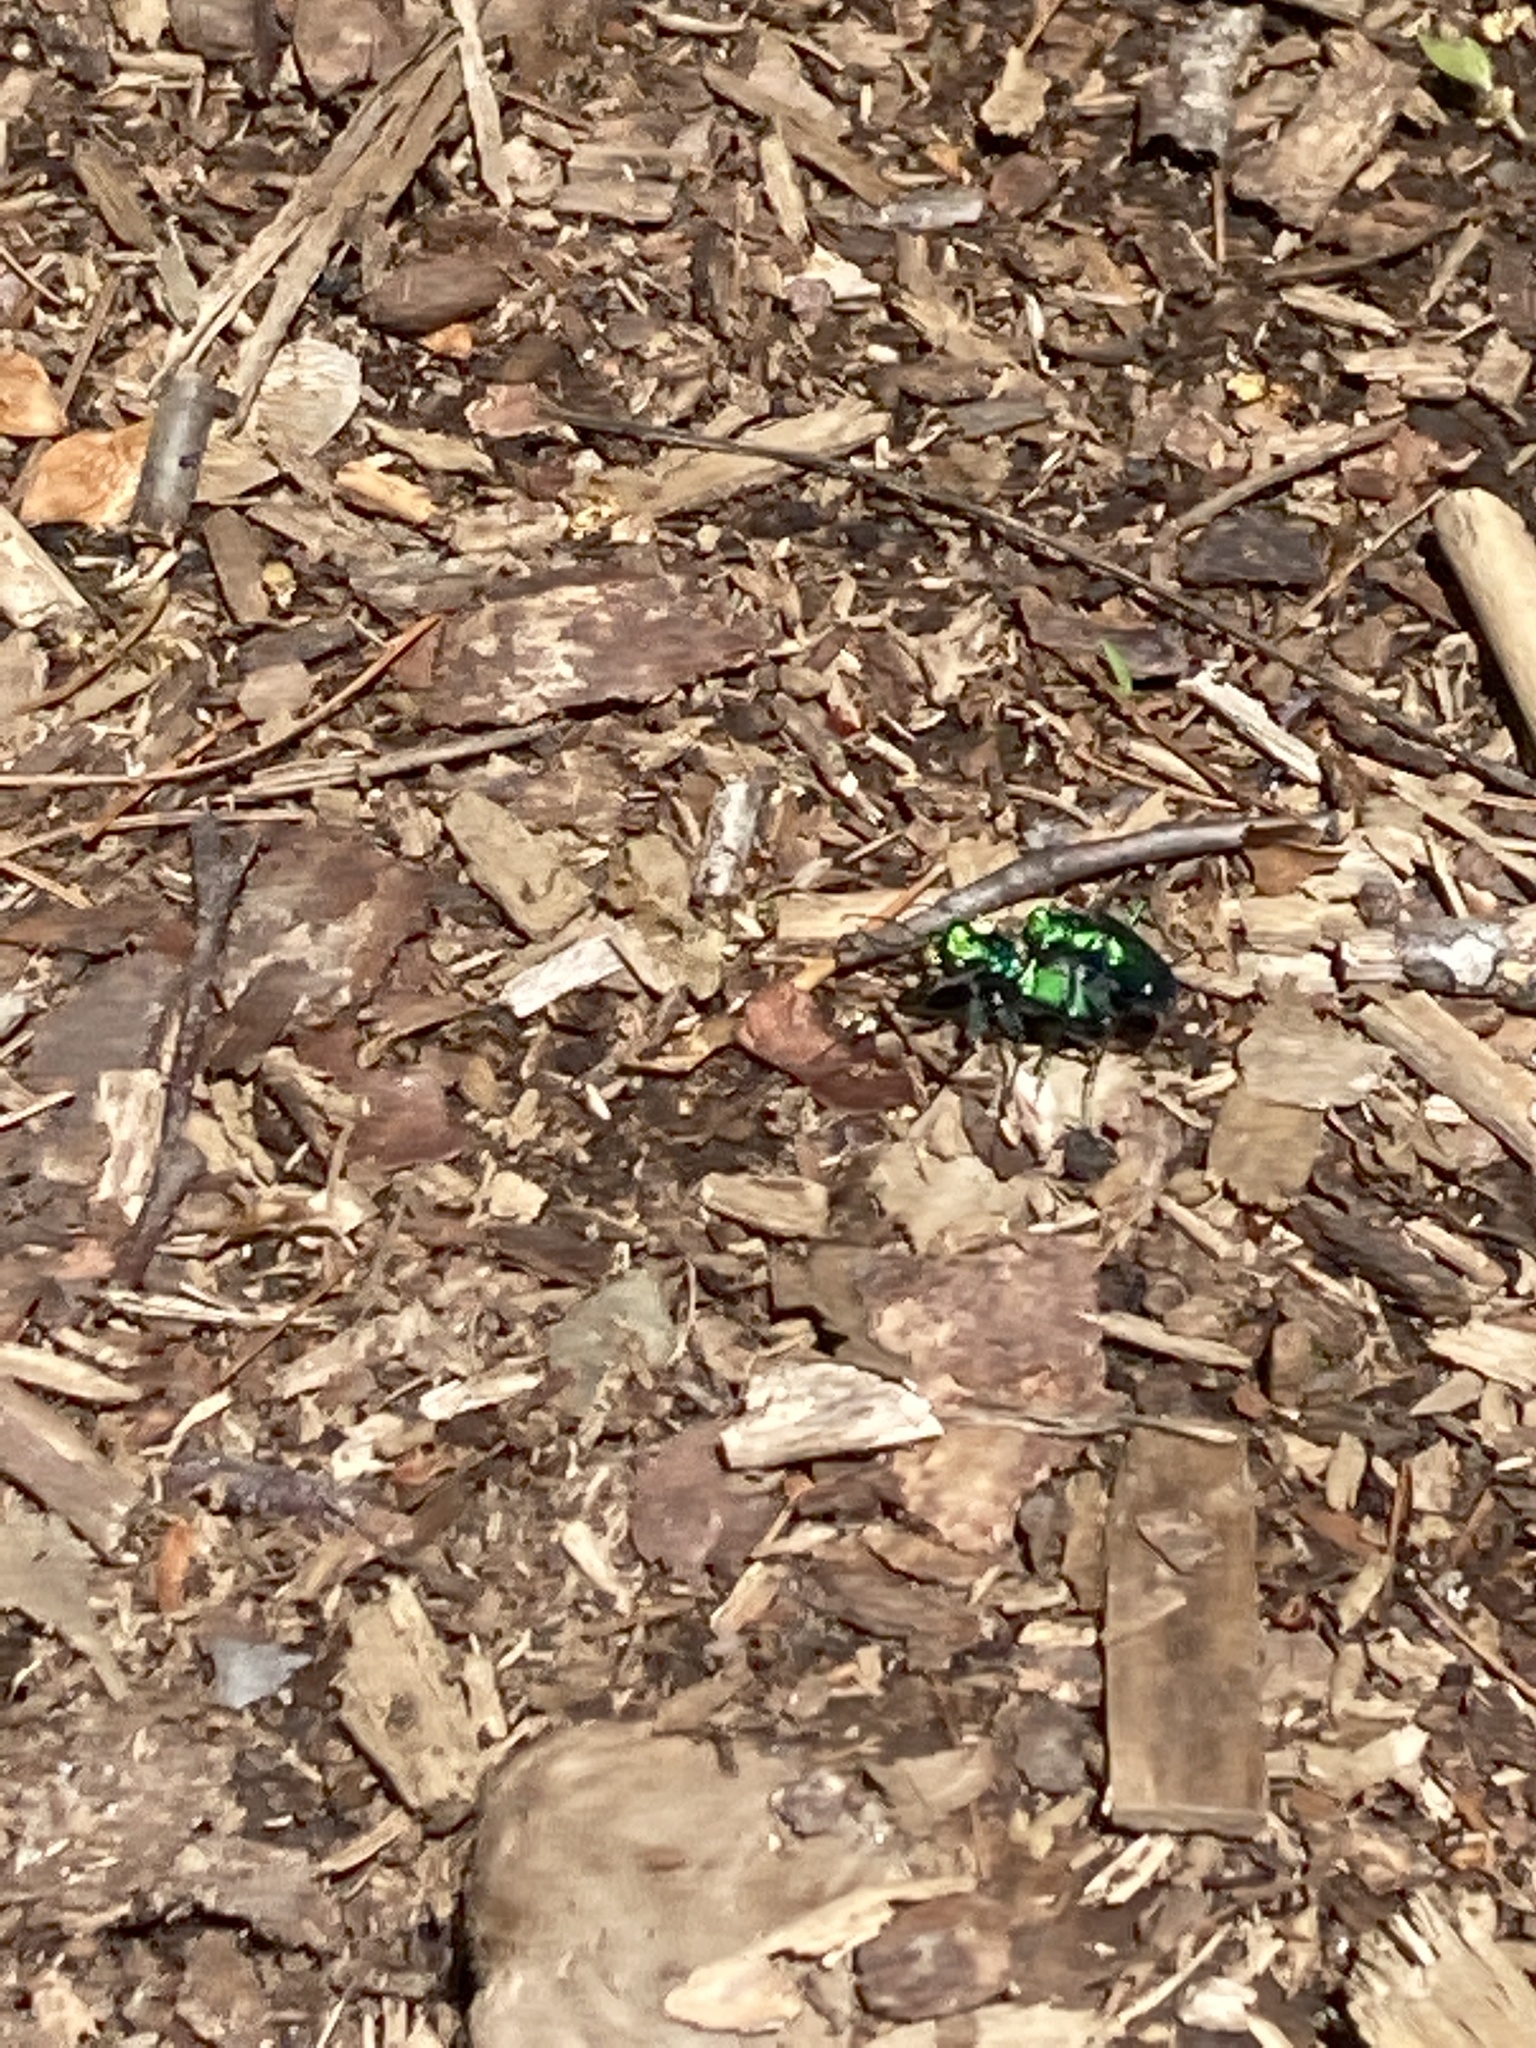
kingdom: Animalia
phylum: Arthropoda
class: Insecta
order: Coleoptera
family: Carabidae
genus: Cicindela
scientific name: Cicindela sexguttata
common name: Six-spotted tiger beetle
